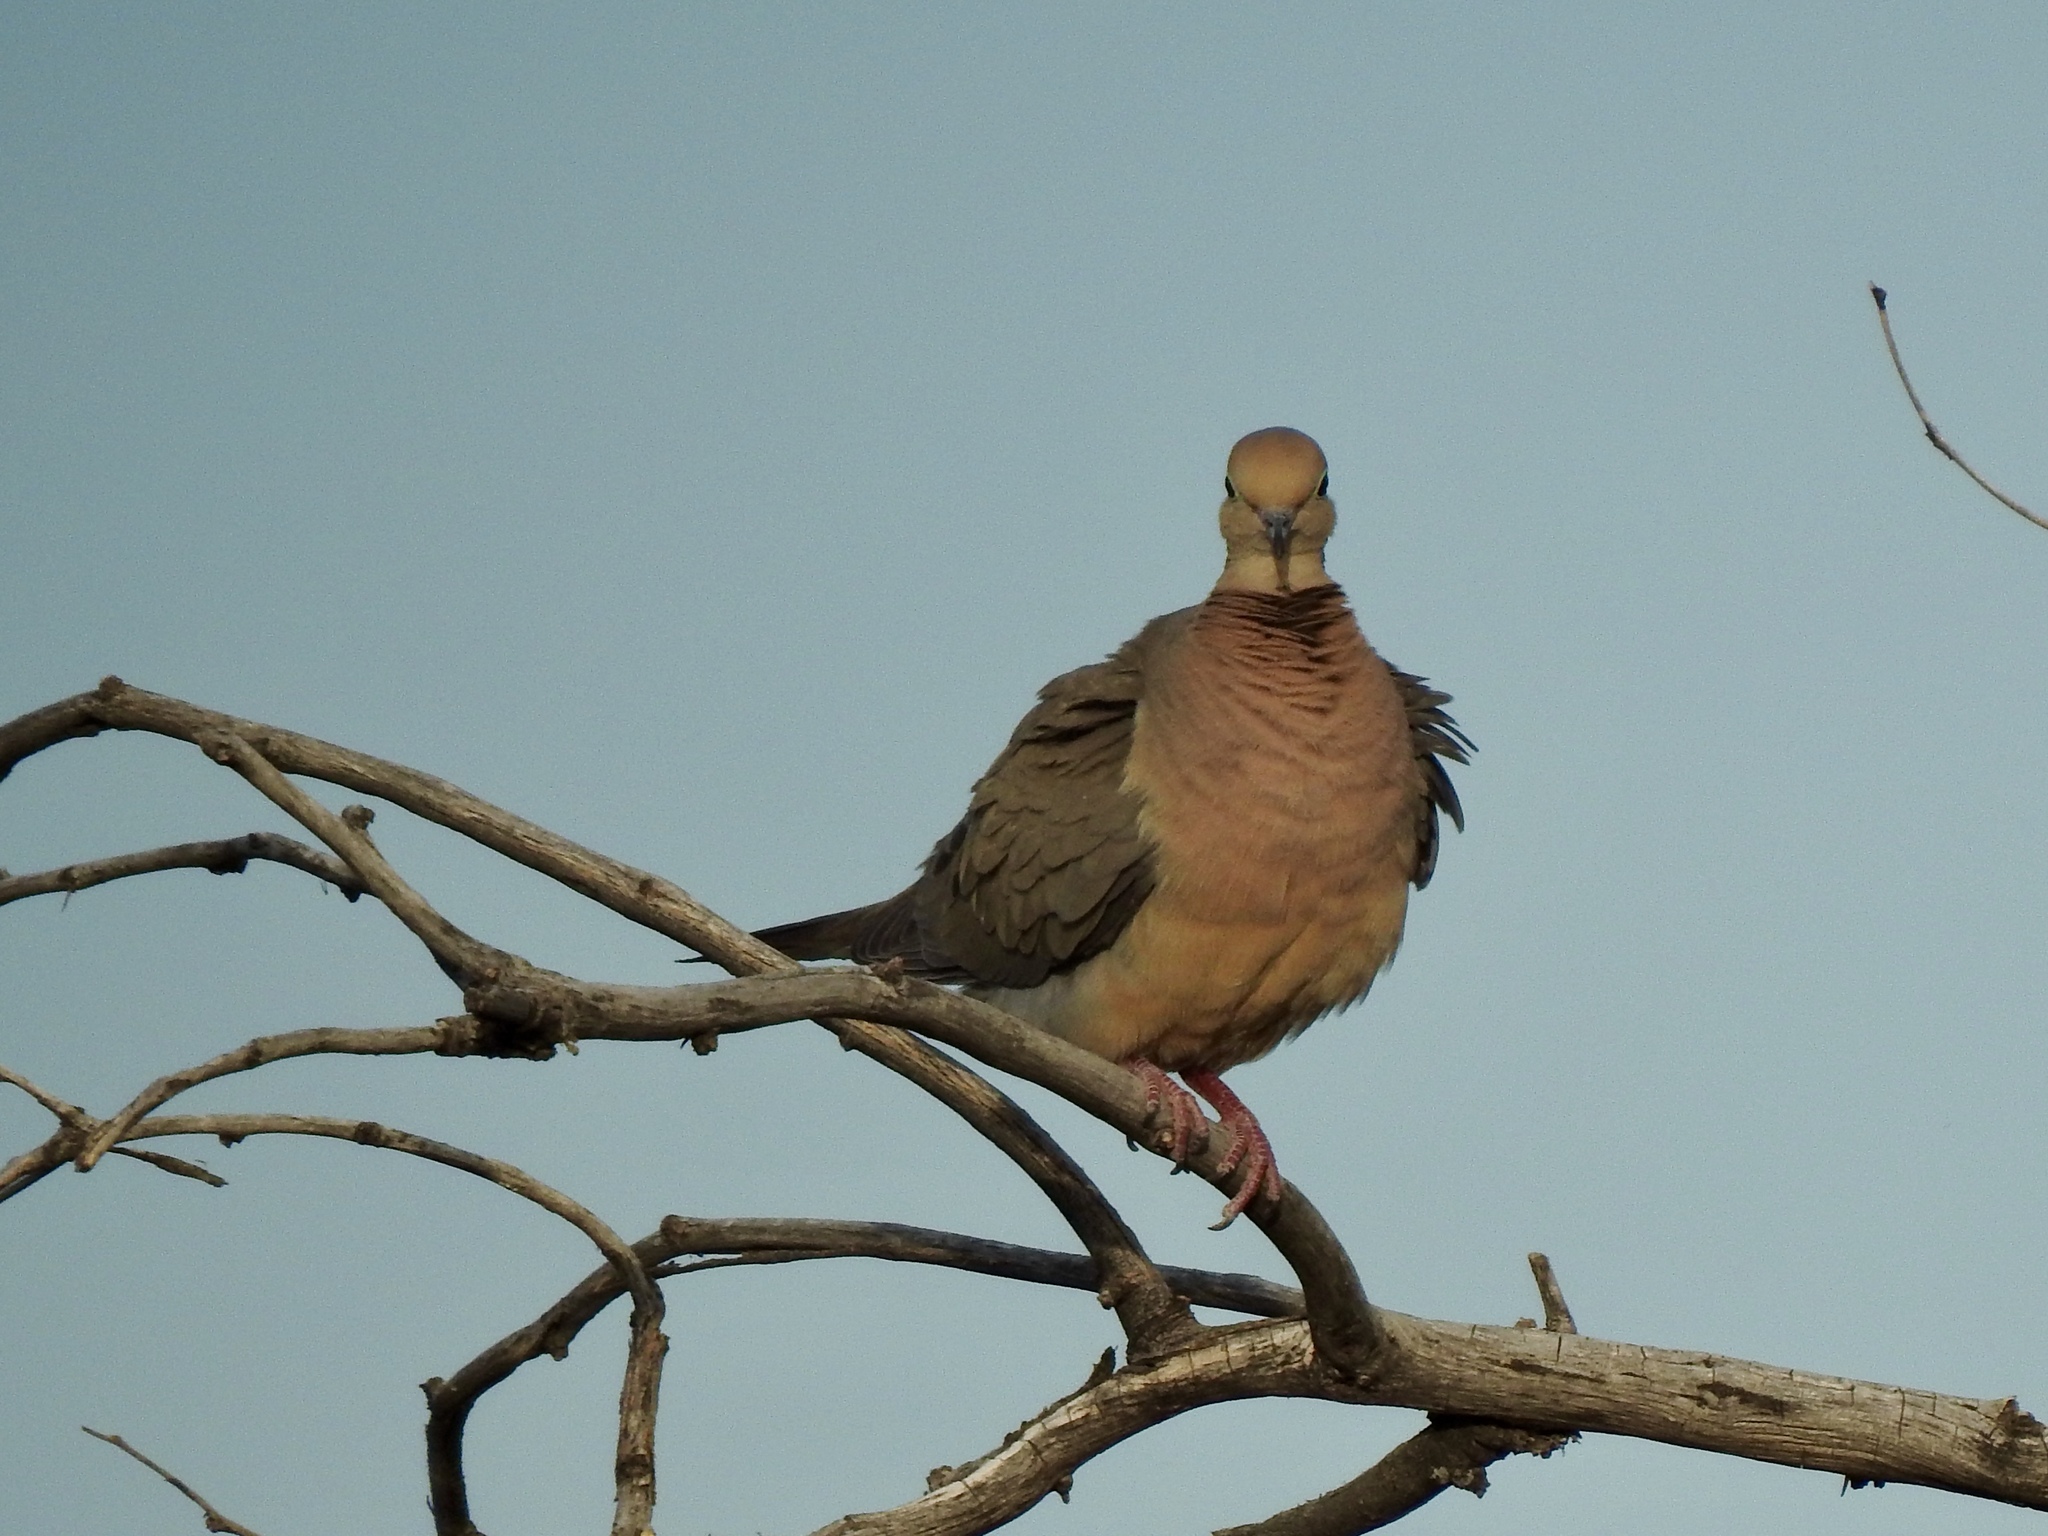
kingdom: Animalia
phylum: Chordata
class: Aves
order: Columbiformes
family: Columbidae
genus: Zenaida
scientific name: Zenaida macroura
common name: Mourning dove
